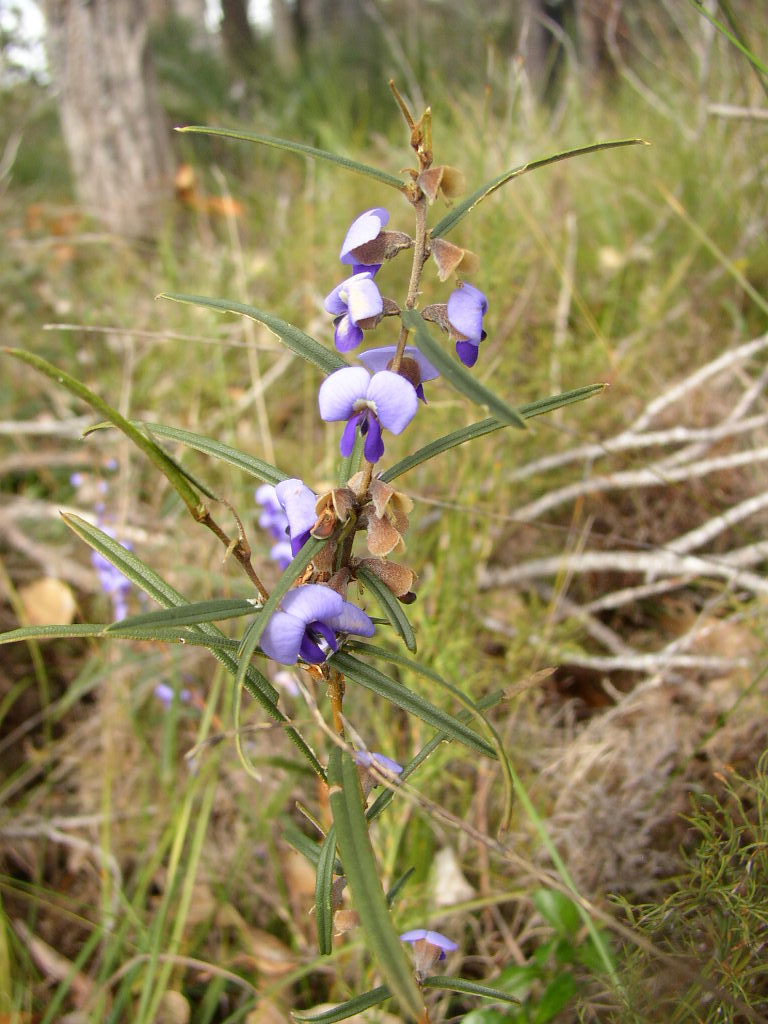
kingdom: Plantae
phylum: Tracheophyta
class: Magnoliopsida
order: Fabales
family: Fabaceae
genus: Hovea
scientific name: Hovea trisperma
